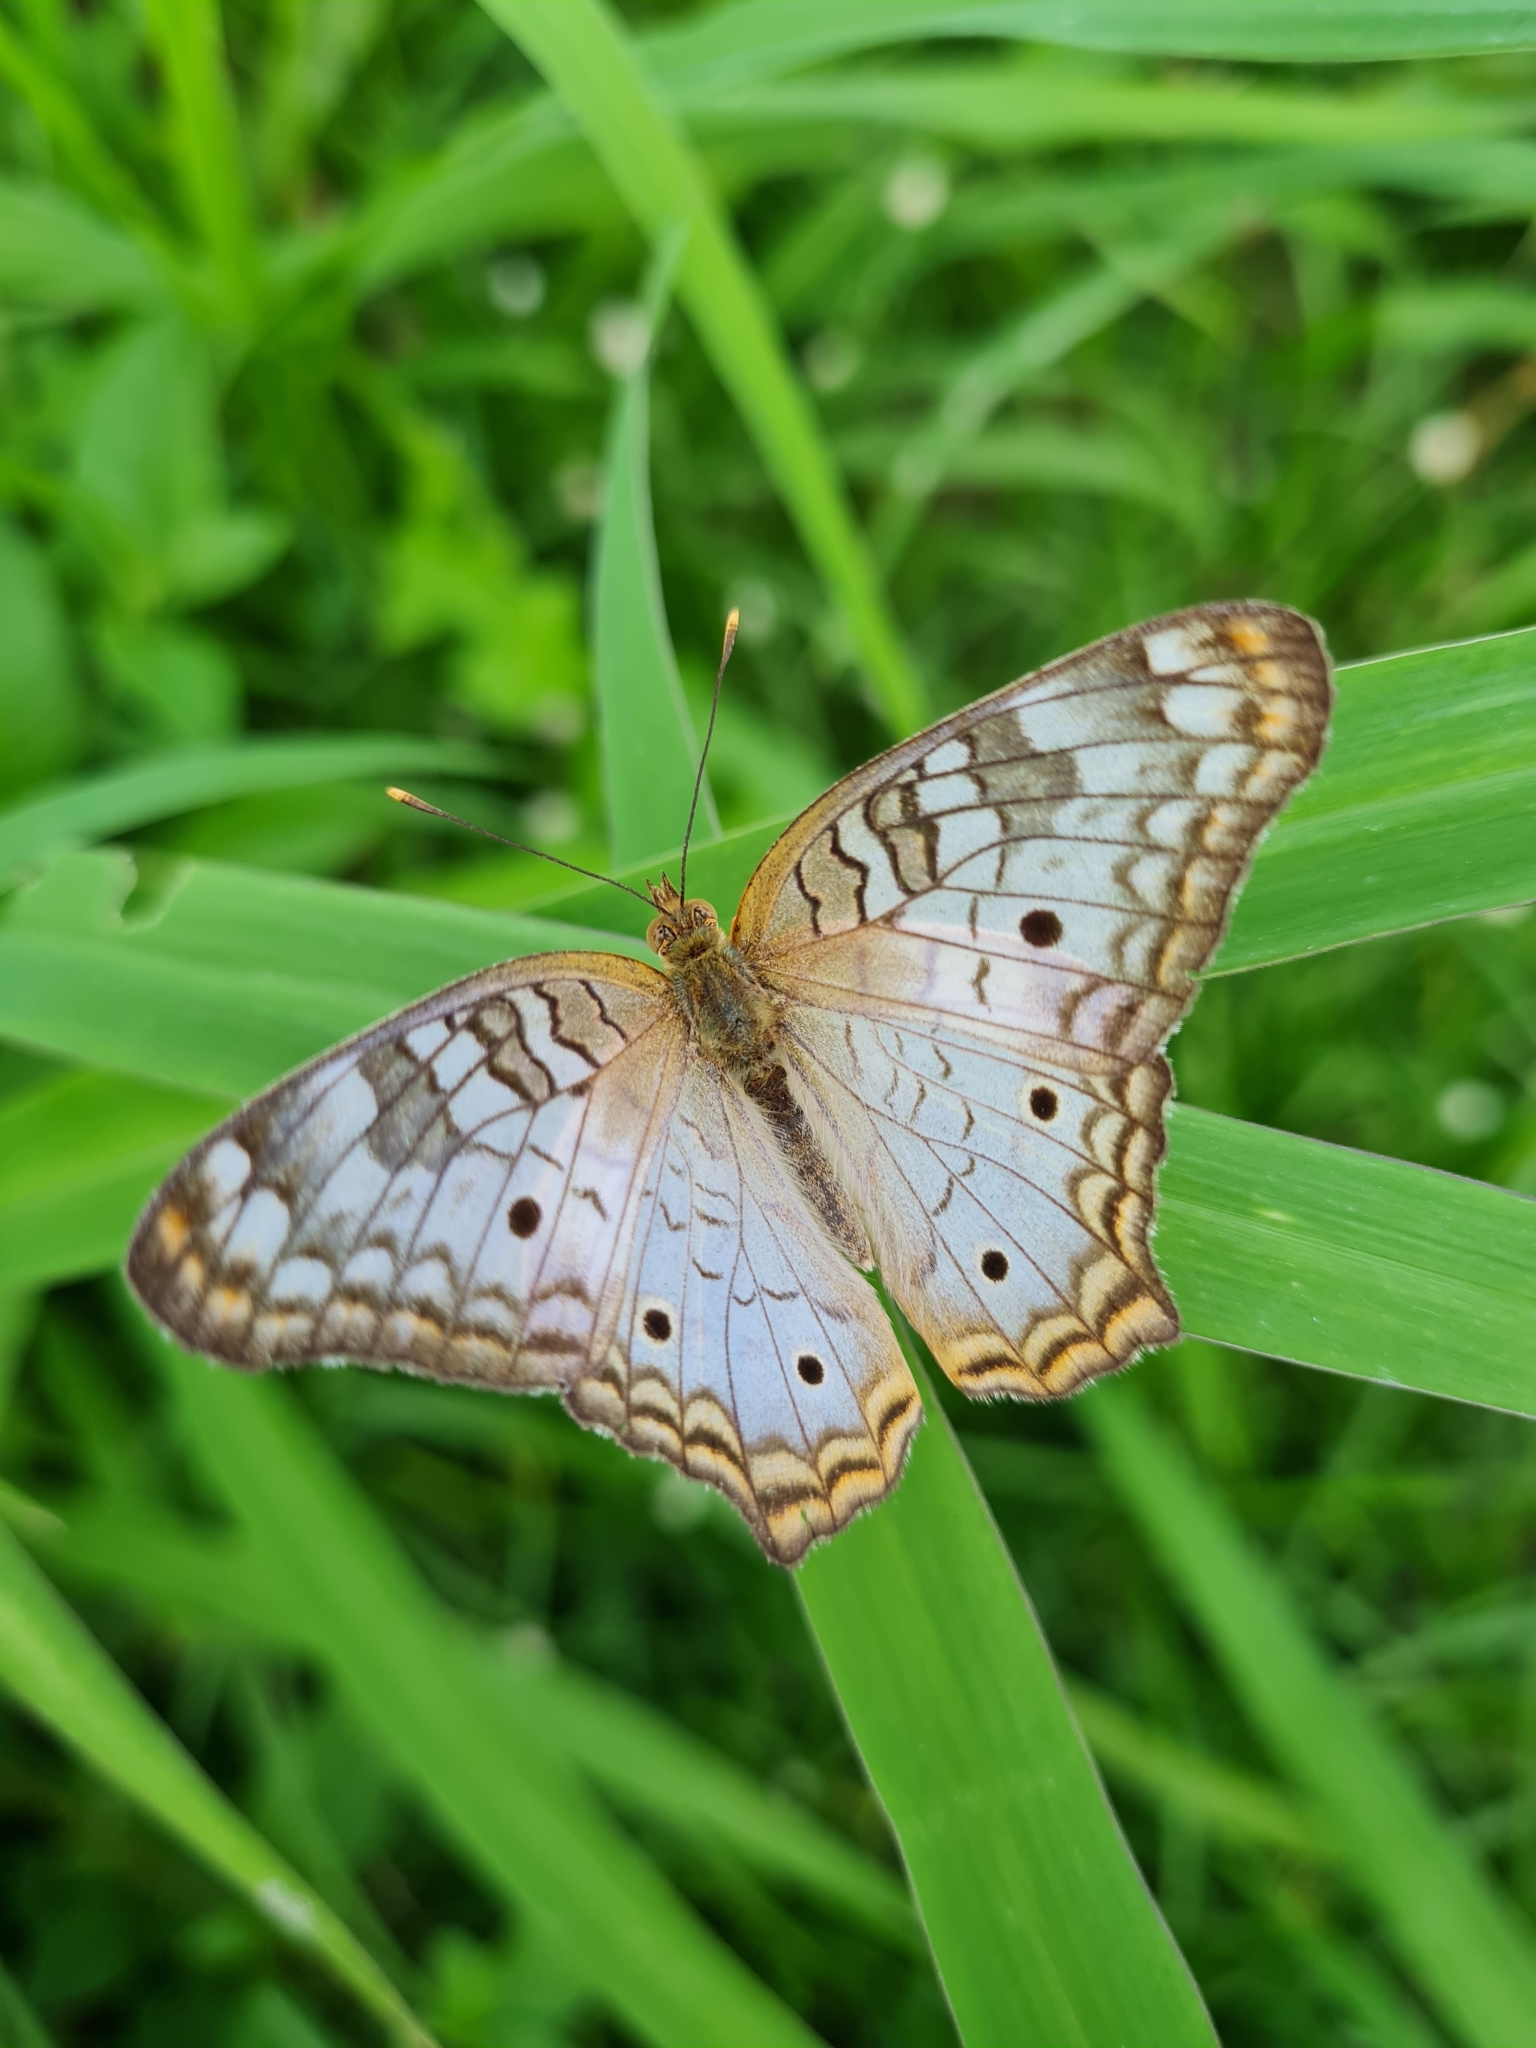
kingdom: Animalia
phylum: Arthropoda
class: Insecta
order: Lepidoptera
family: Nymphalidae
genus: Anartia
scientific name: Anartia jatrophae
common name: White peacock
